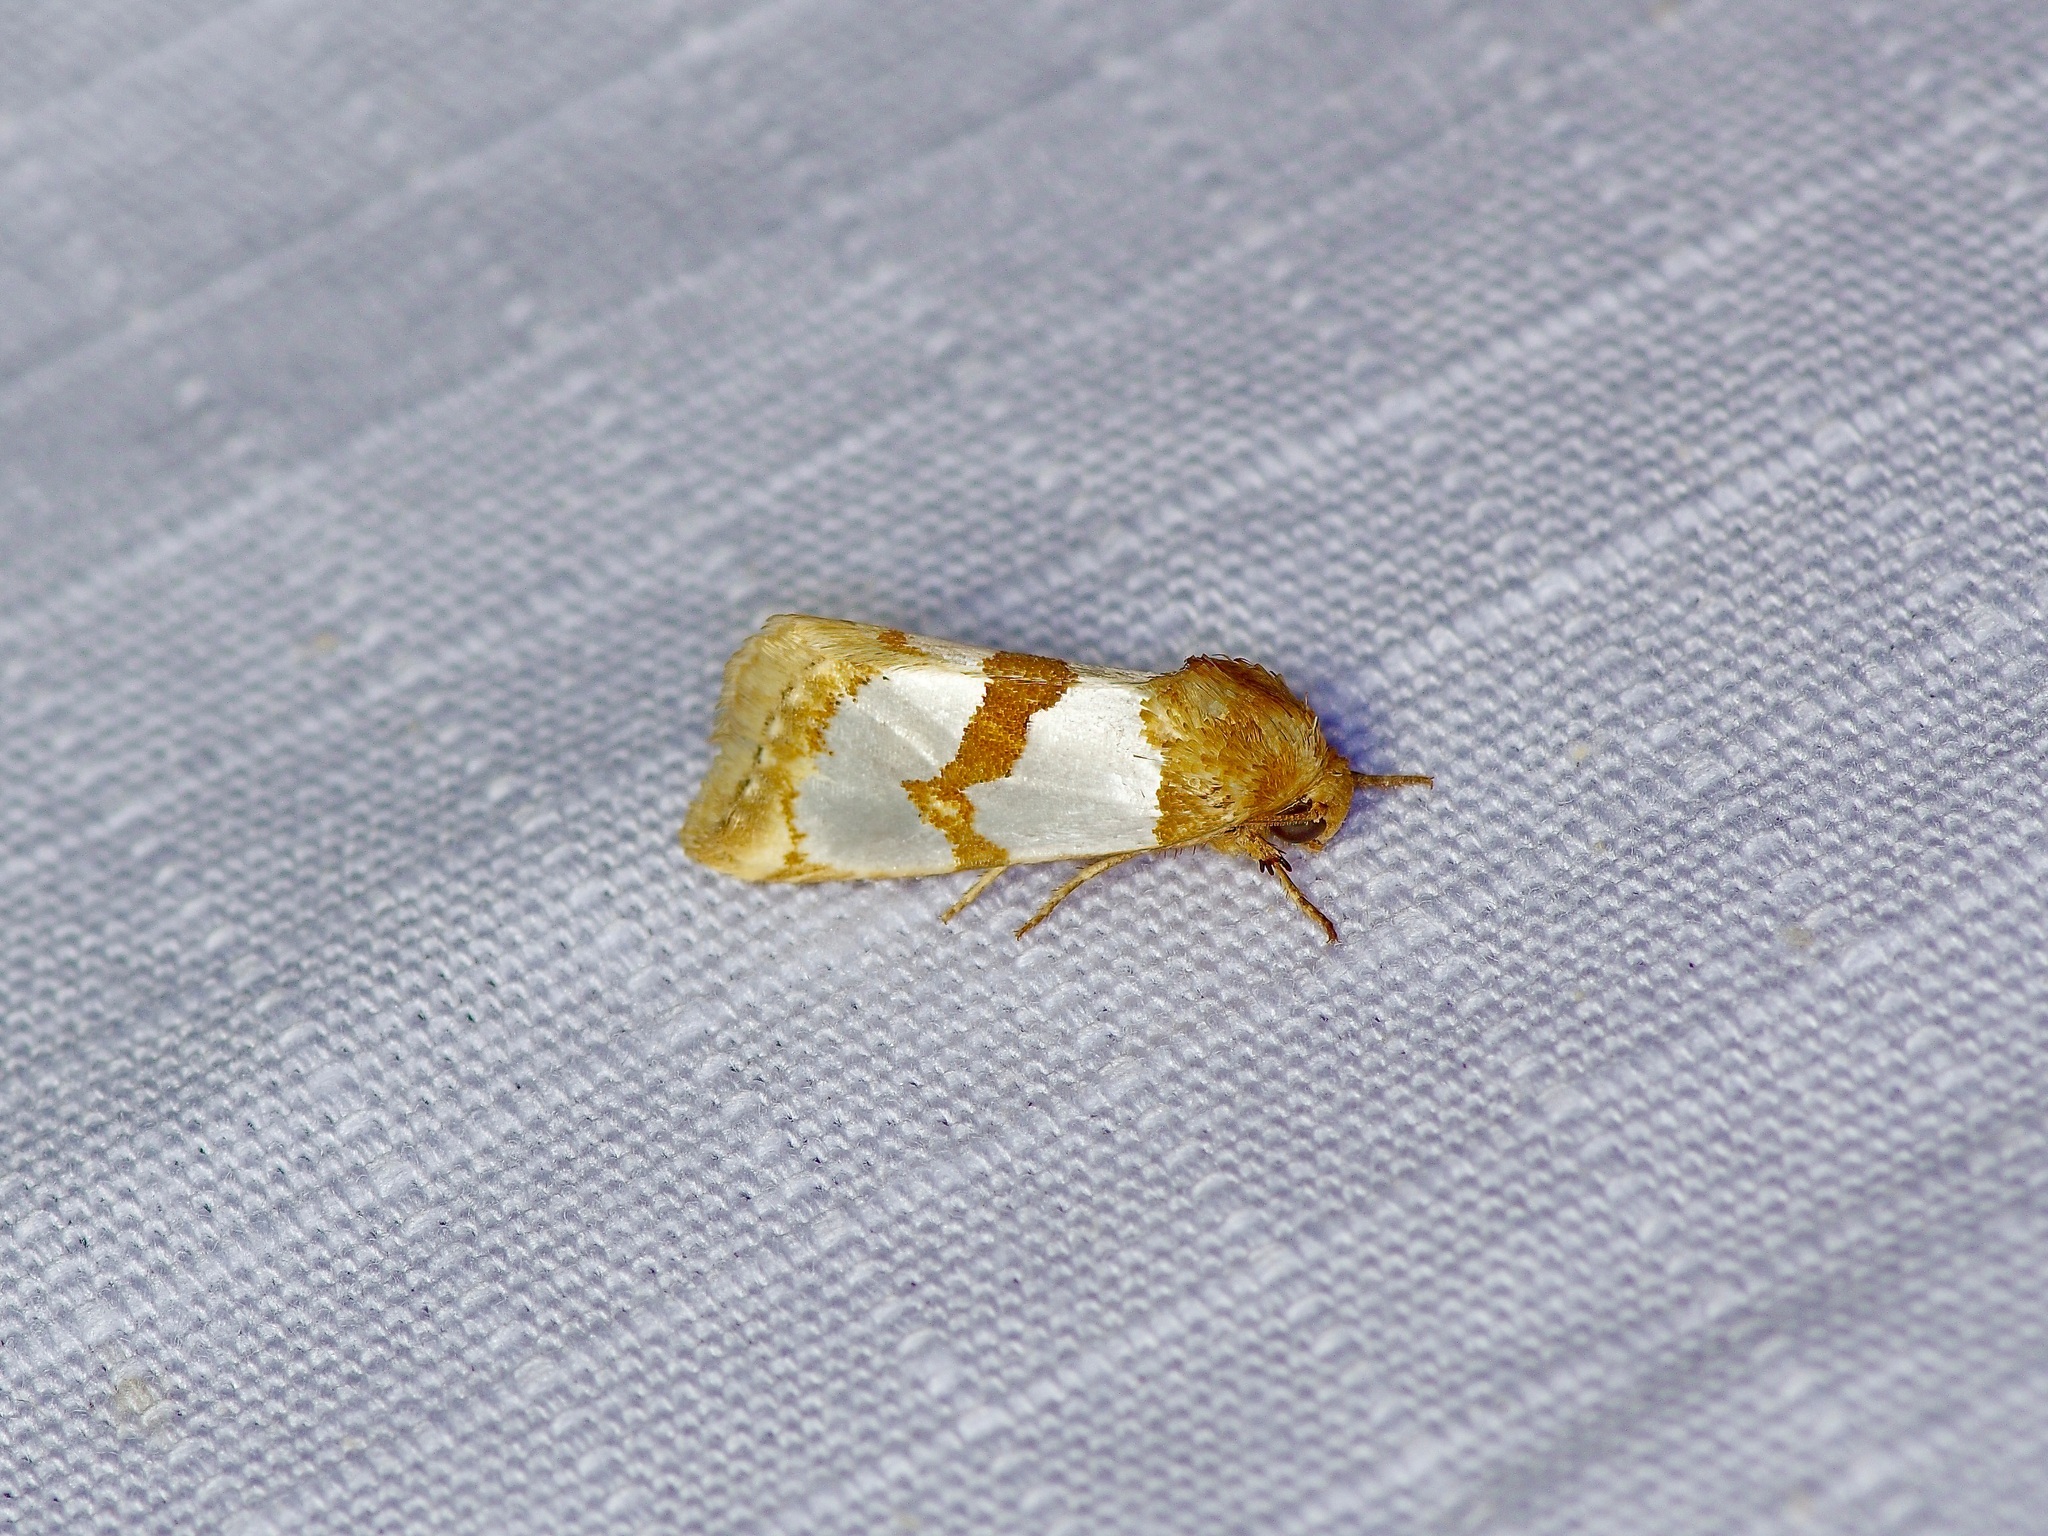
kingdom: Animalia
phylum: Arthropoda
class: Insecta
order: Lepidoptera
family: Noctuidae
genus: Schinia
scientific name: Schinia chrysellus
